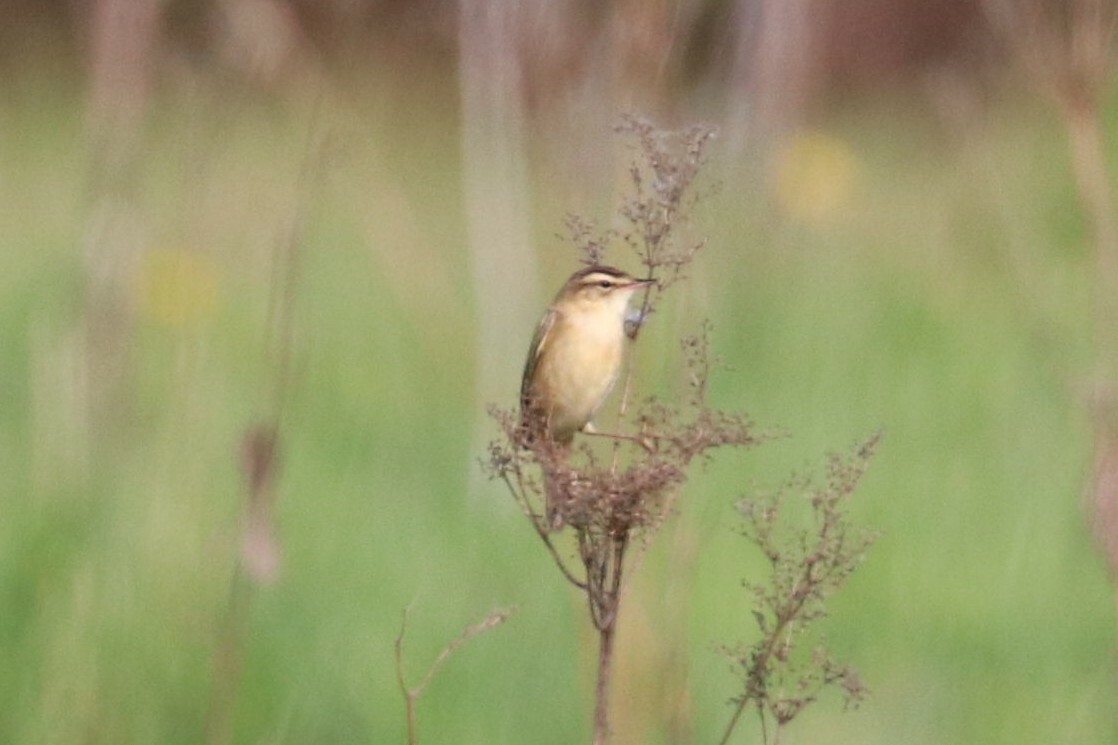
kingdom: Animalia
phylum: Chordata
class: Aves
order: Passeriformes
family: Acrocephalidae
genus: Acrocephalus
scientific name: Acrocephalus schoenobaenus
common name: Sedge warbler
